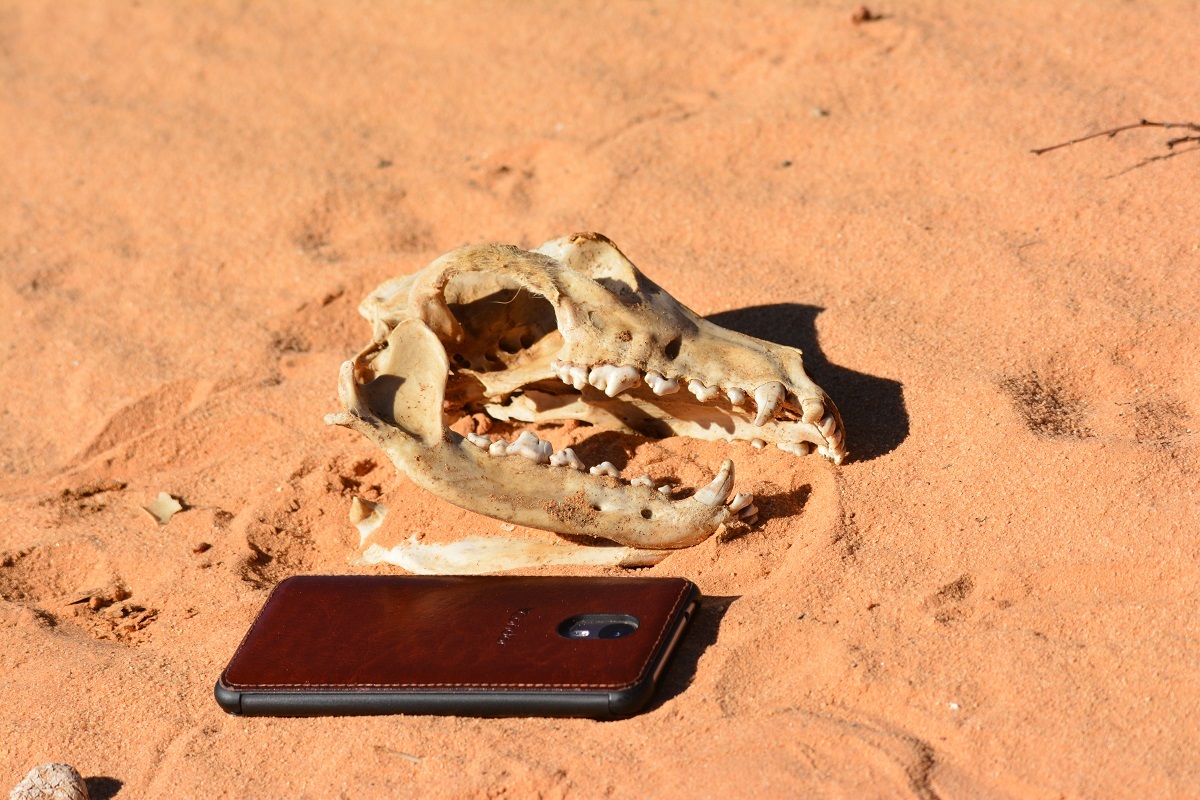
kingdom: Animalia
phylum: Chordata
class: Mammalia
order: Carnivora
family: Canidae
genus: Canis
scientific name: Canis lupus
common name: Gray wolf
